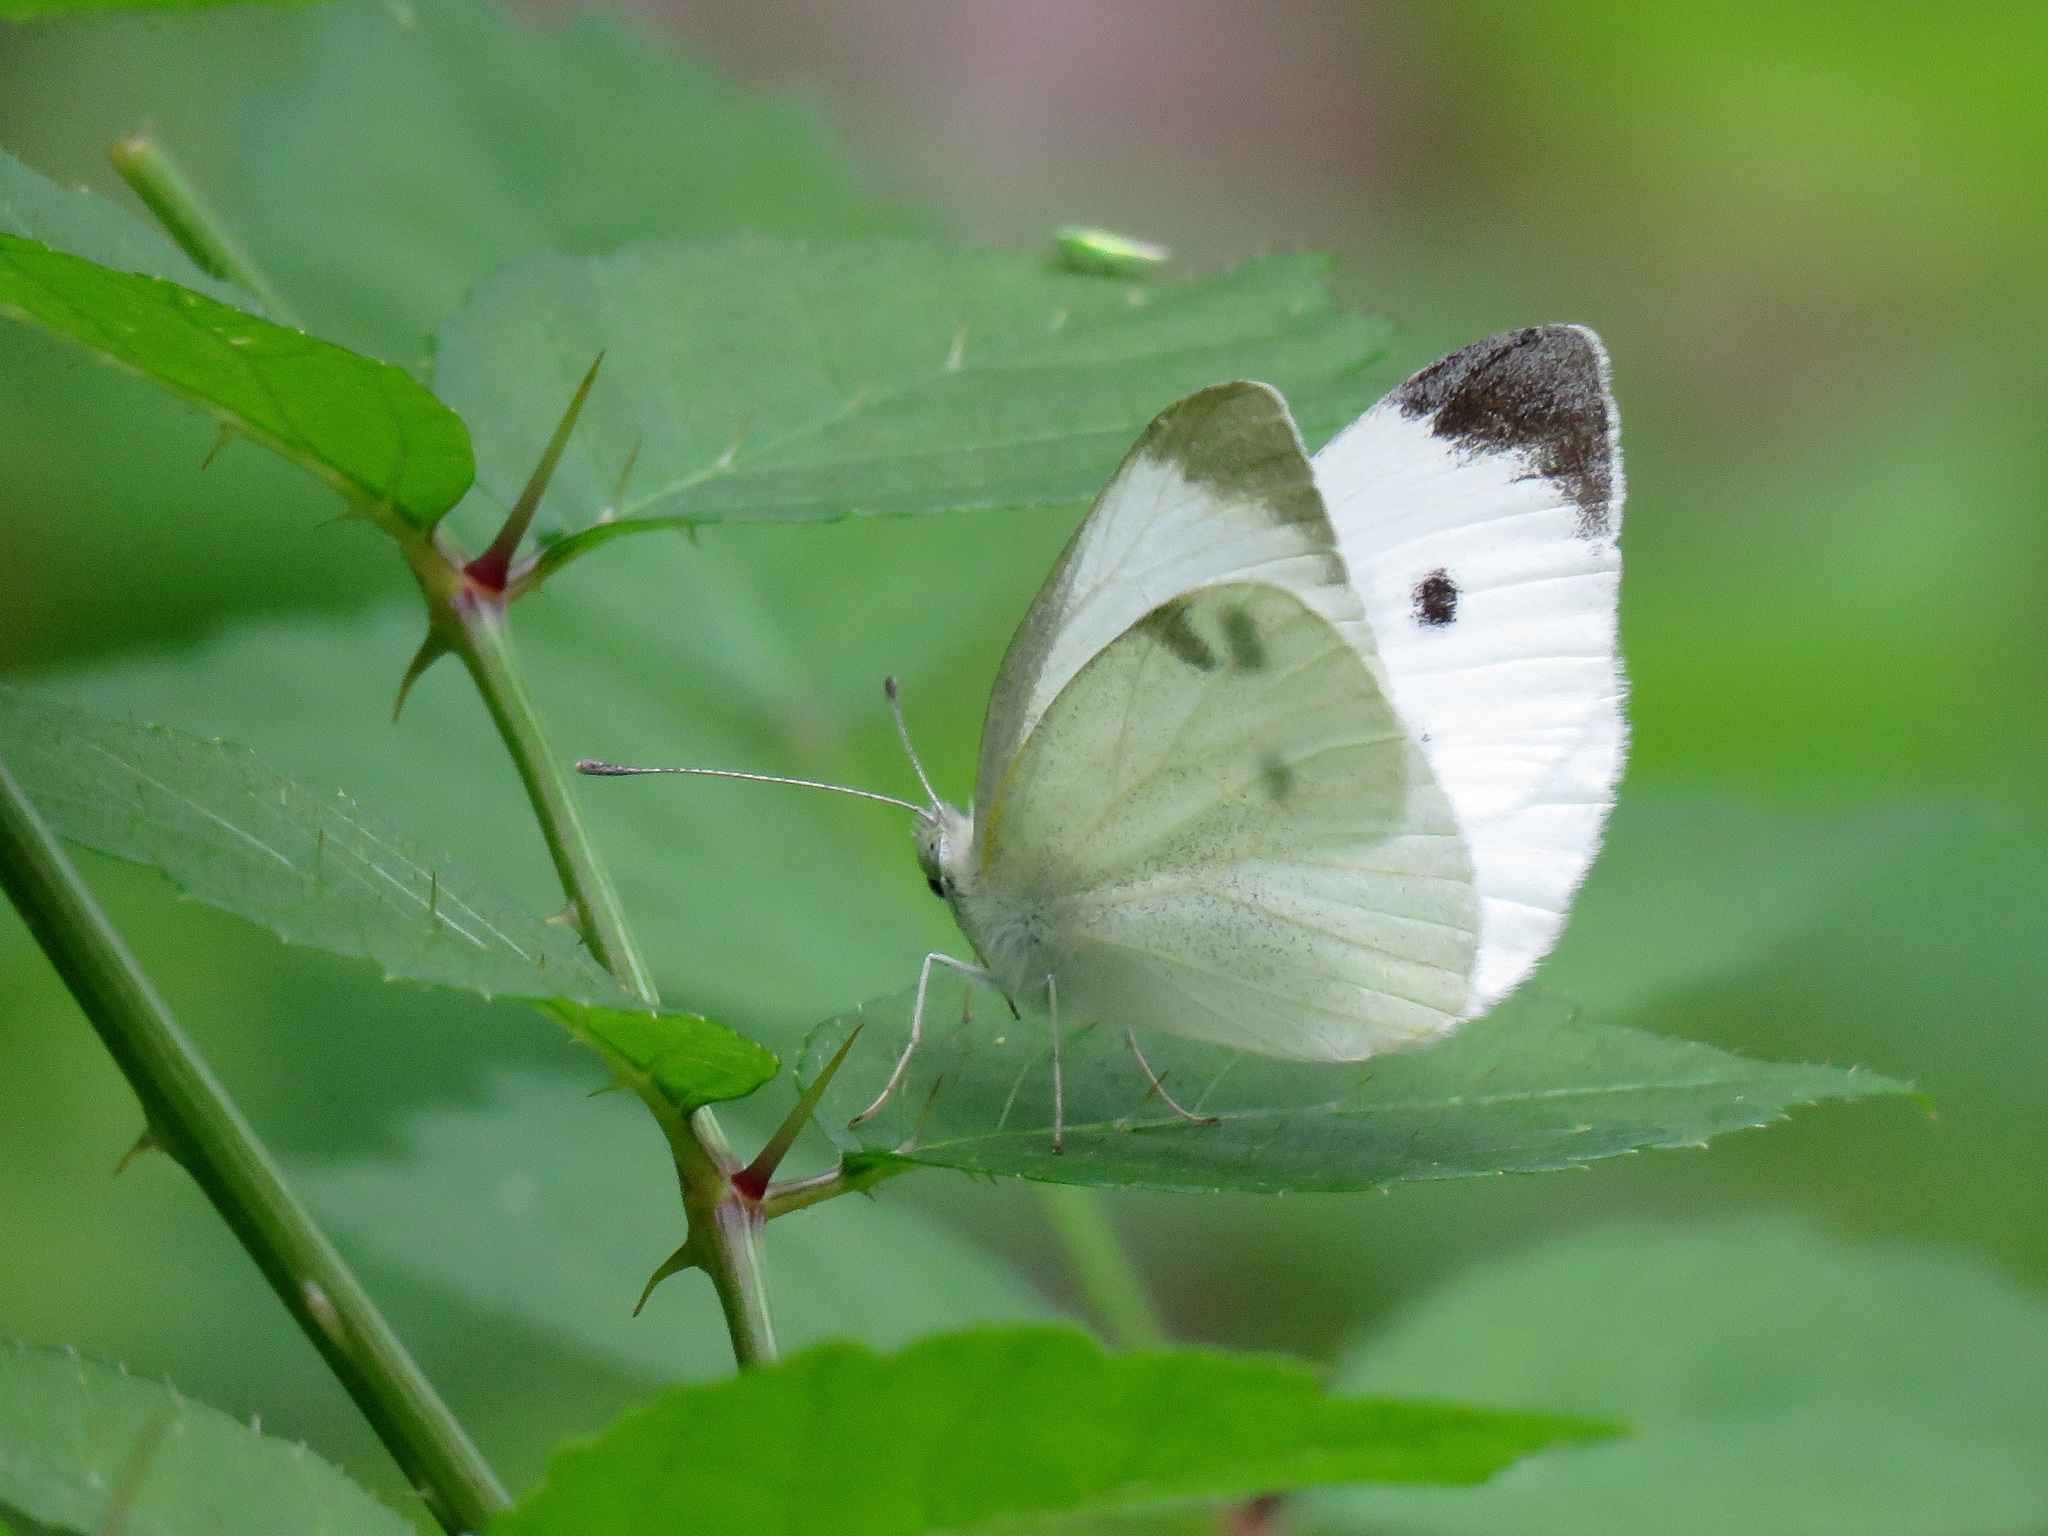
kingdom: Animalia
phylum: Arthropoda
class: Insecta
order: Lepidoptera
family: Pieridae
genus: Pieris
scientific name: Pieris rapae
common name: Small white
